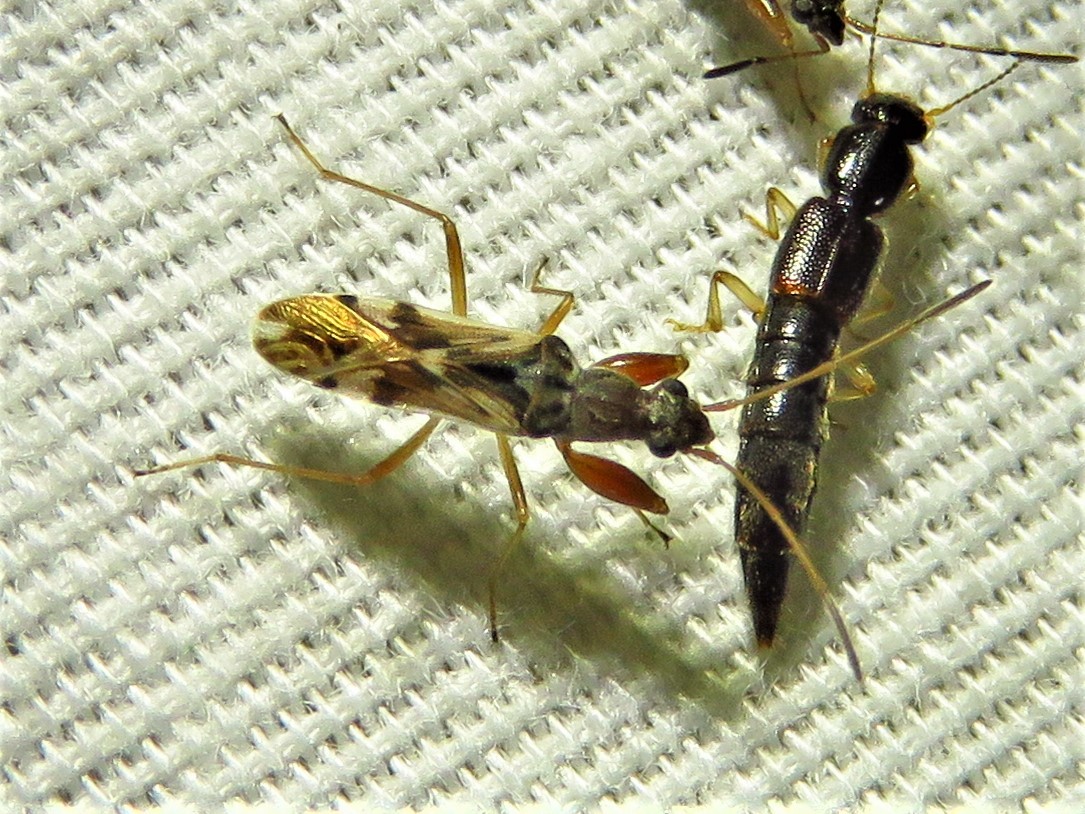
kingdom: Animalia
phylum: Arthropoda
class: Insecta
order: Hemiptera
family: Rhyparochromidae
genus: Neopamera
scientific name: Neopamera bilobata
